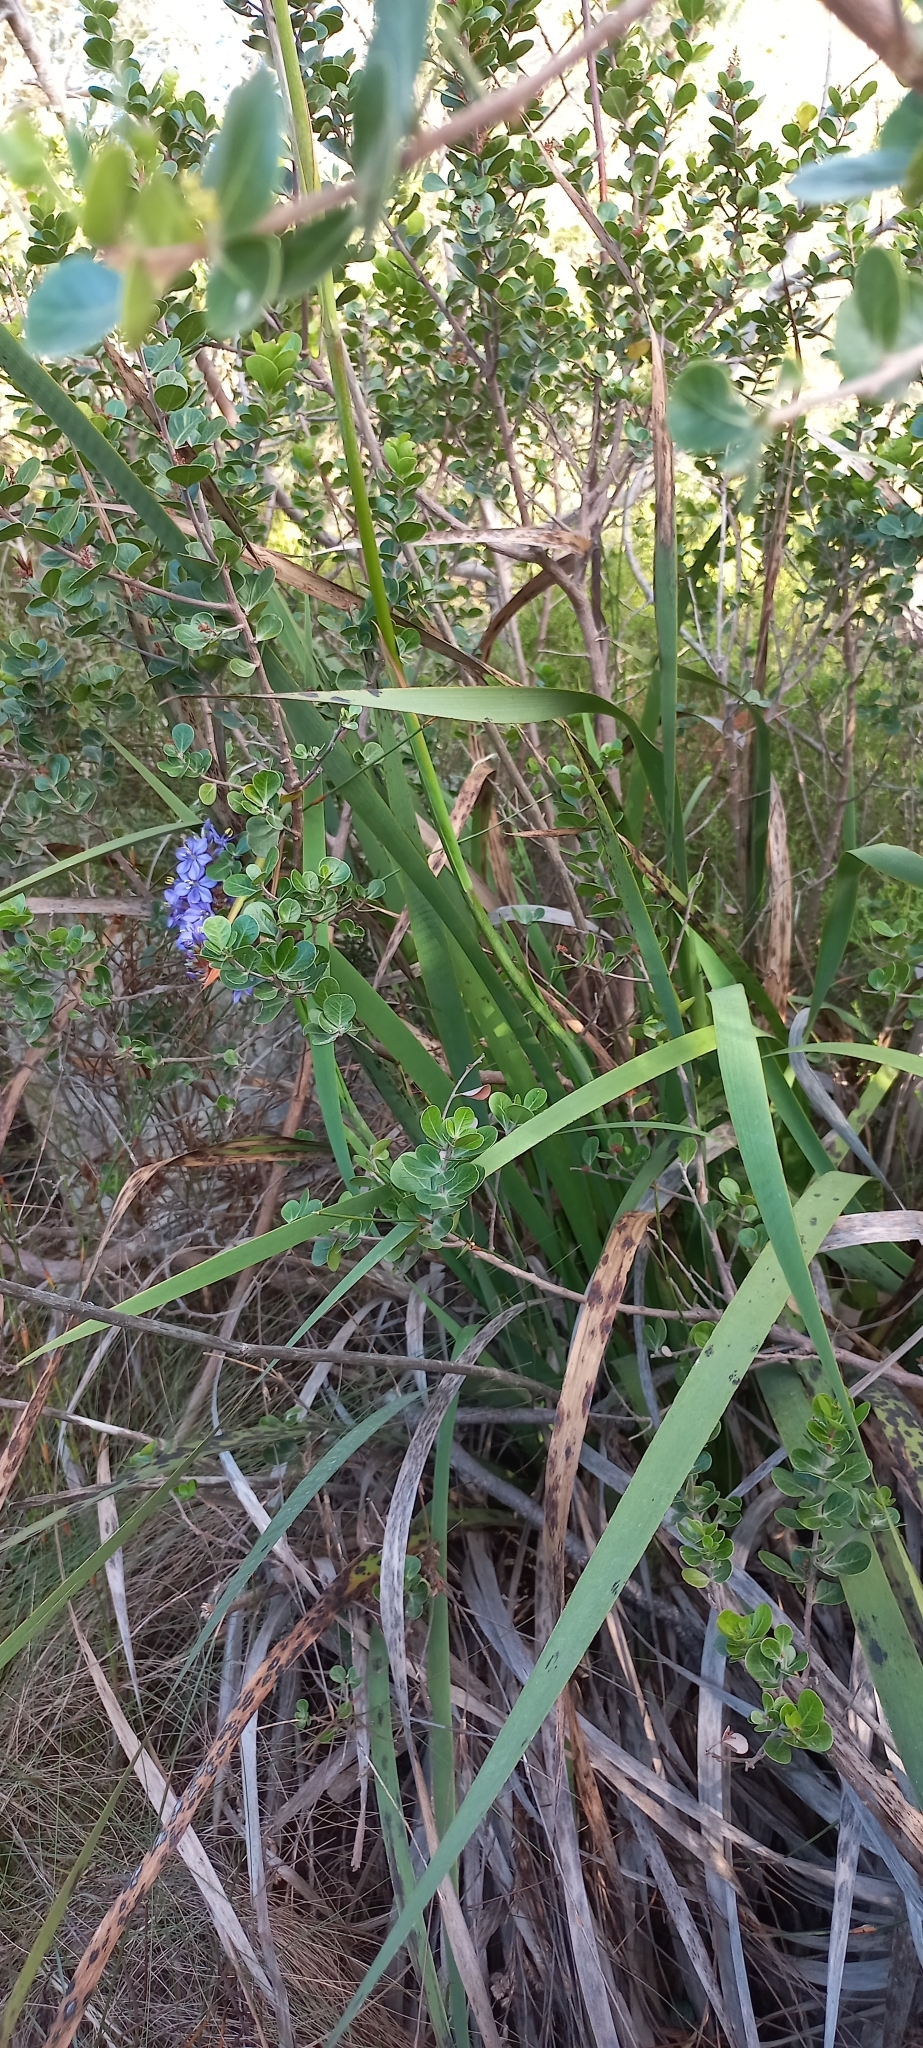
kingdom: Plantae
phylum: Tracheophyta
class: Liliopsida
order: Asparagales
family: Iridaceae
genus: Aristea
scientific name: Aristea capitata
